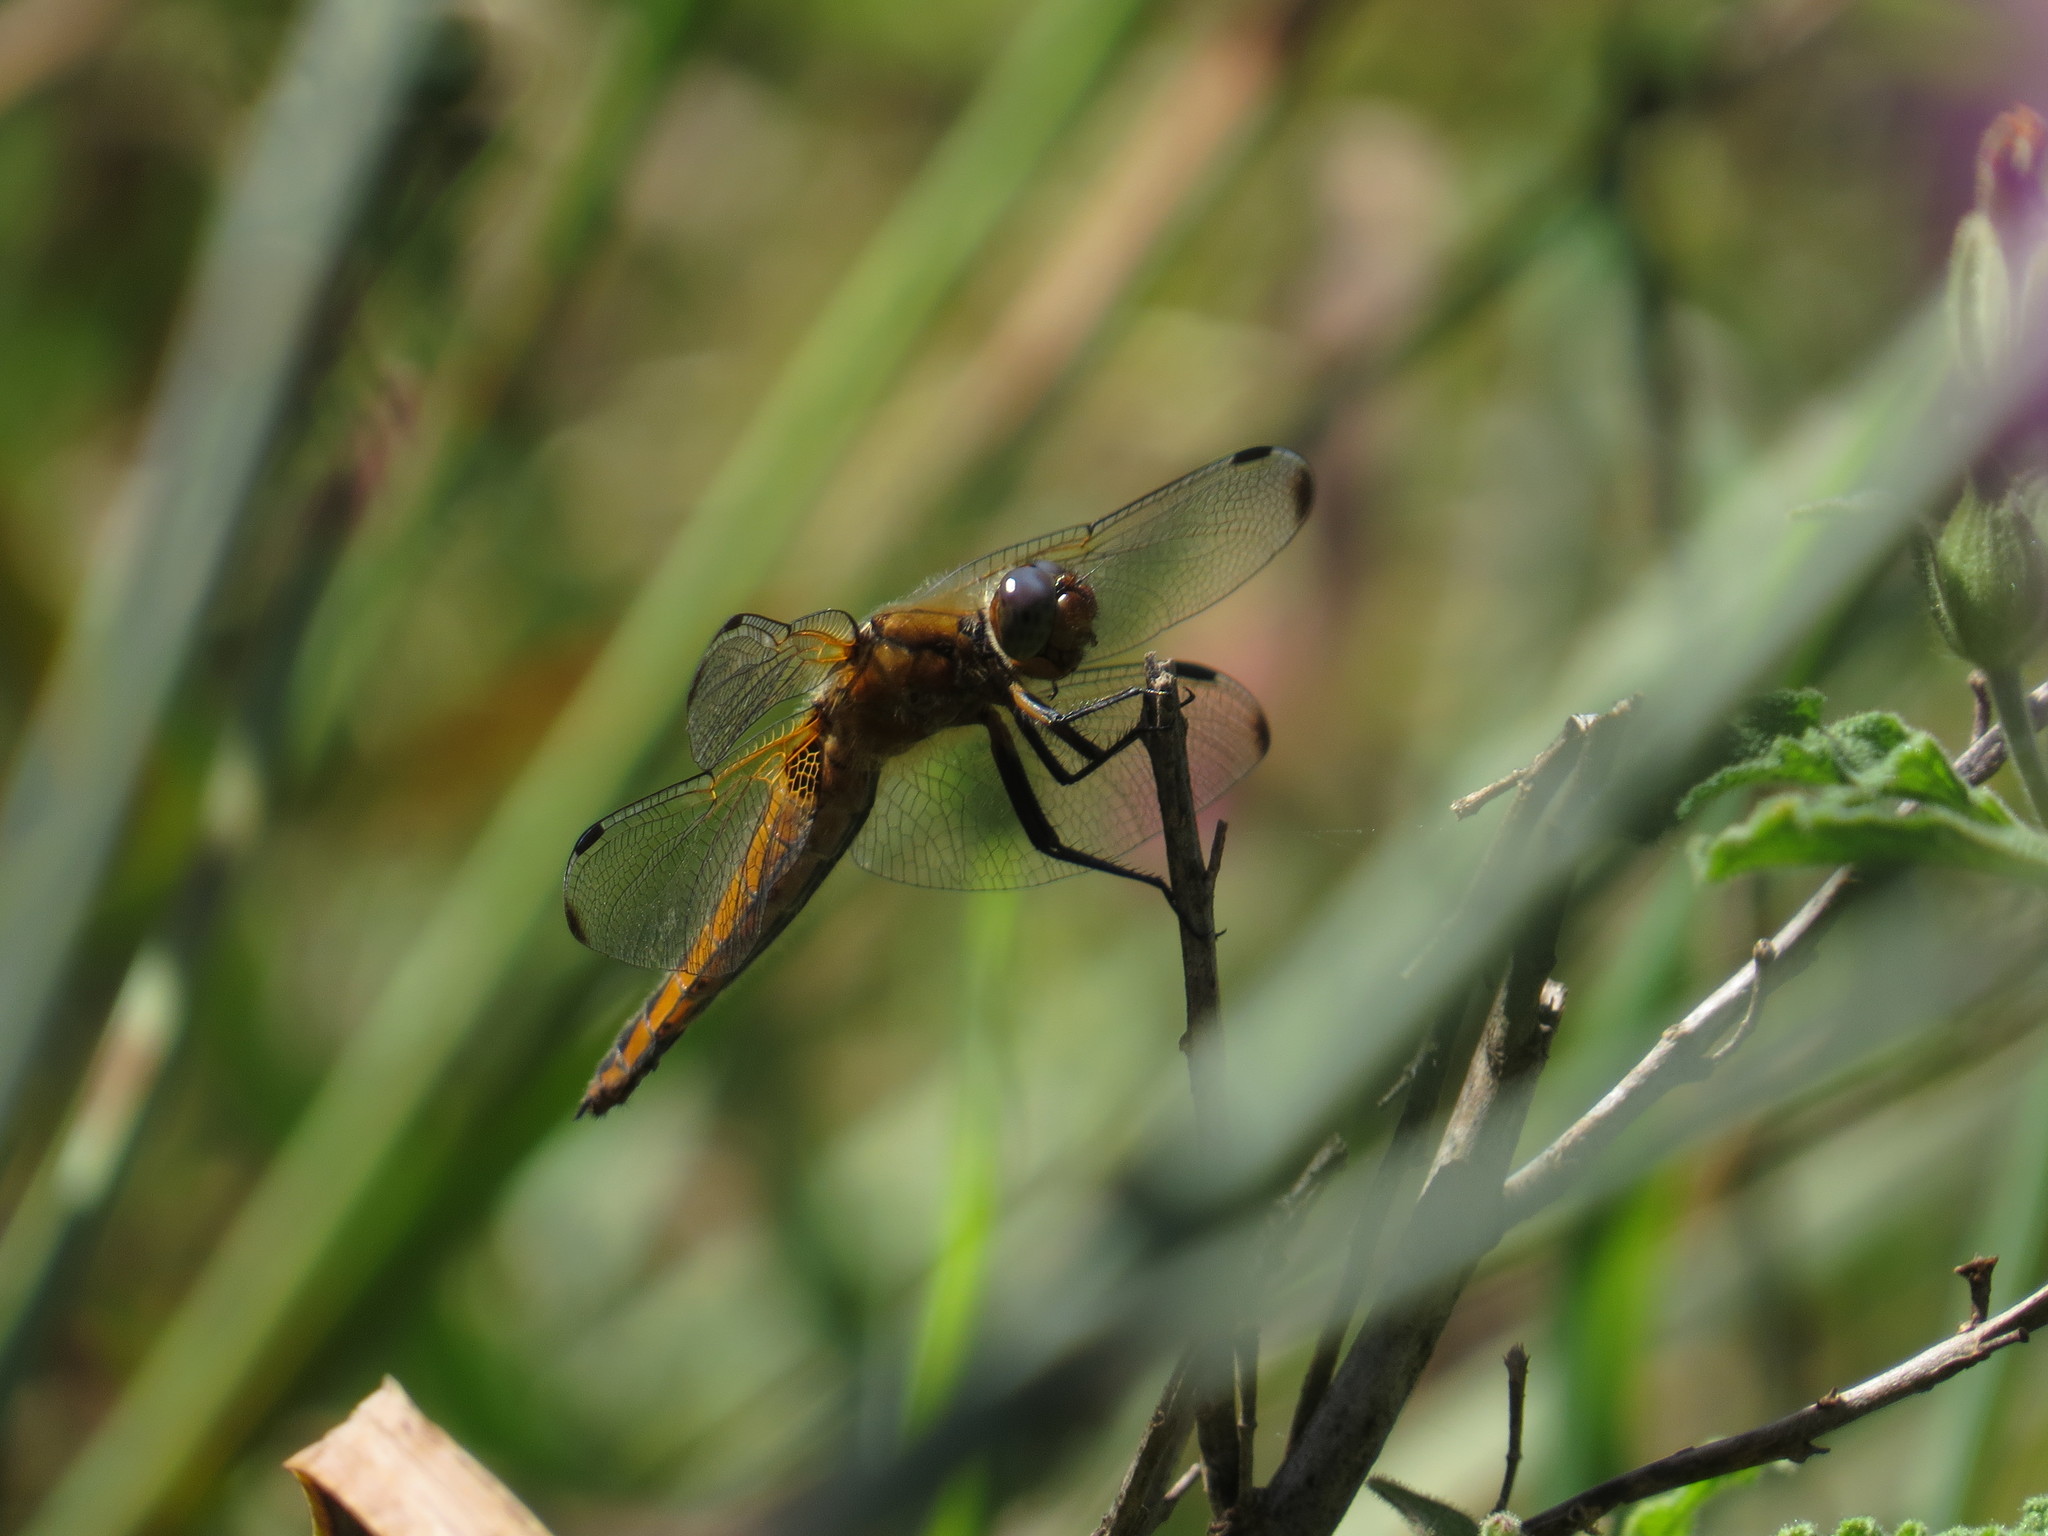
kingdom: Animalia
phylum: Arthropoda
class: Insecta
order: Odonata
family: Libellulidae
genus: Libellula
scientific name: Libellula fulva
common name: Blue chaser
